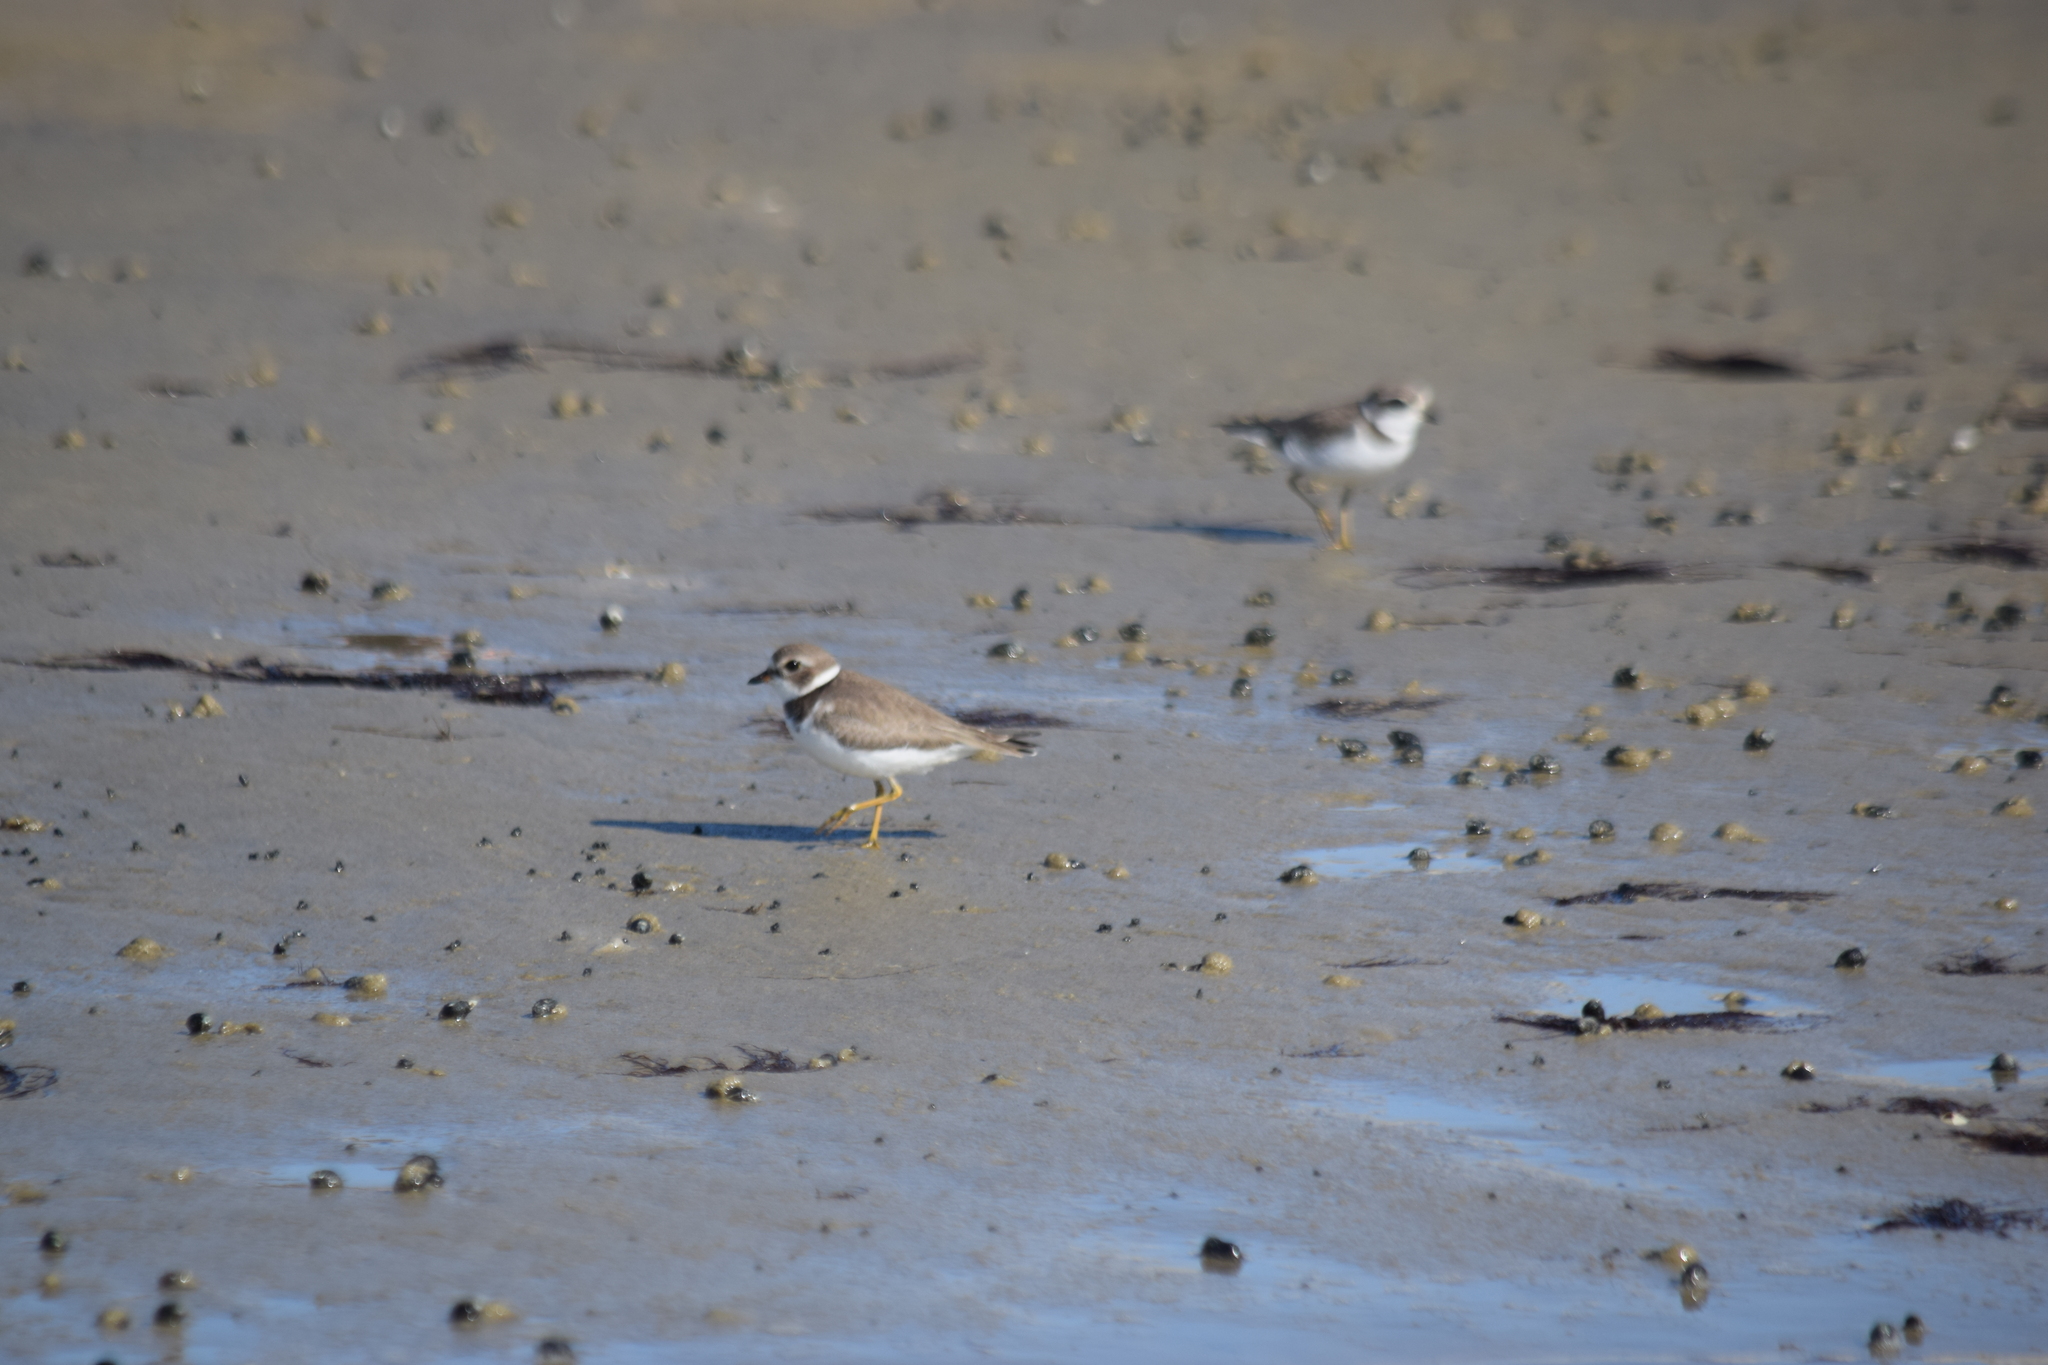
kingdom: Animalia
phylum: Chordata
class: Aves
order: Charadriiformes
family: Charadriidae
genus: Charadrius
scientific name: Charadrius semipalmatus
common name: Semipalmated plover
